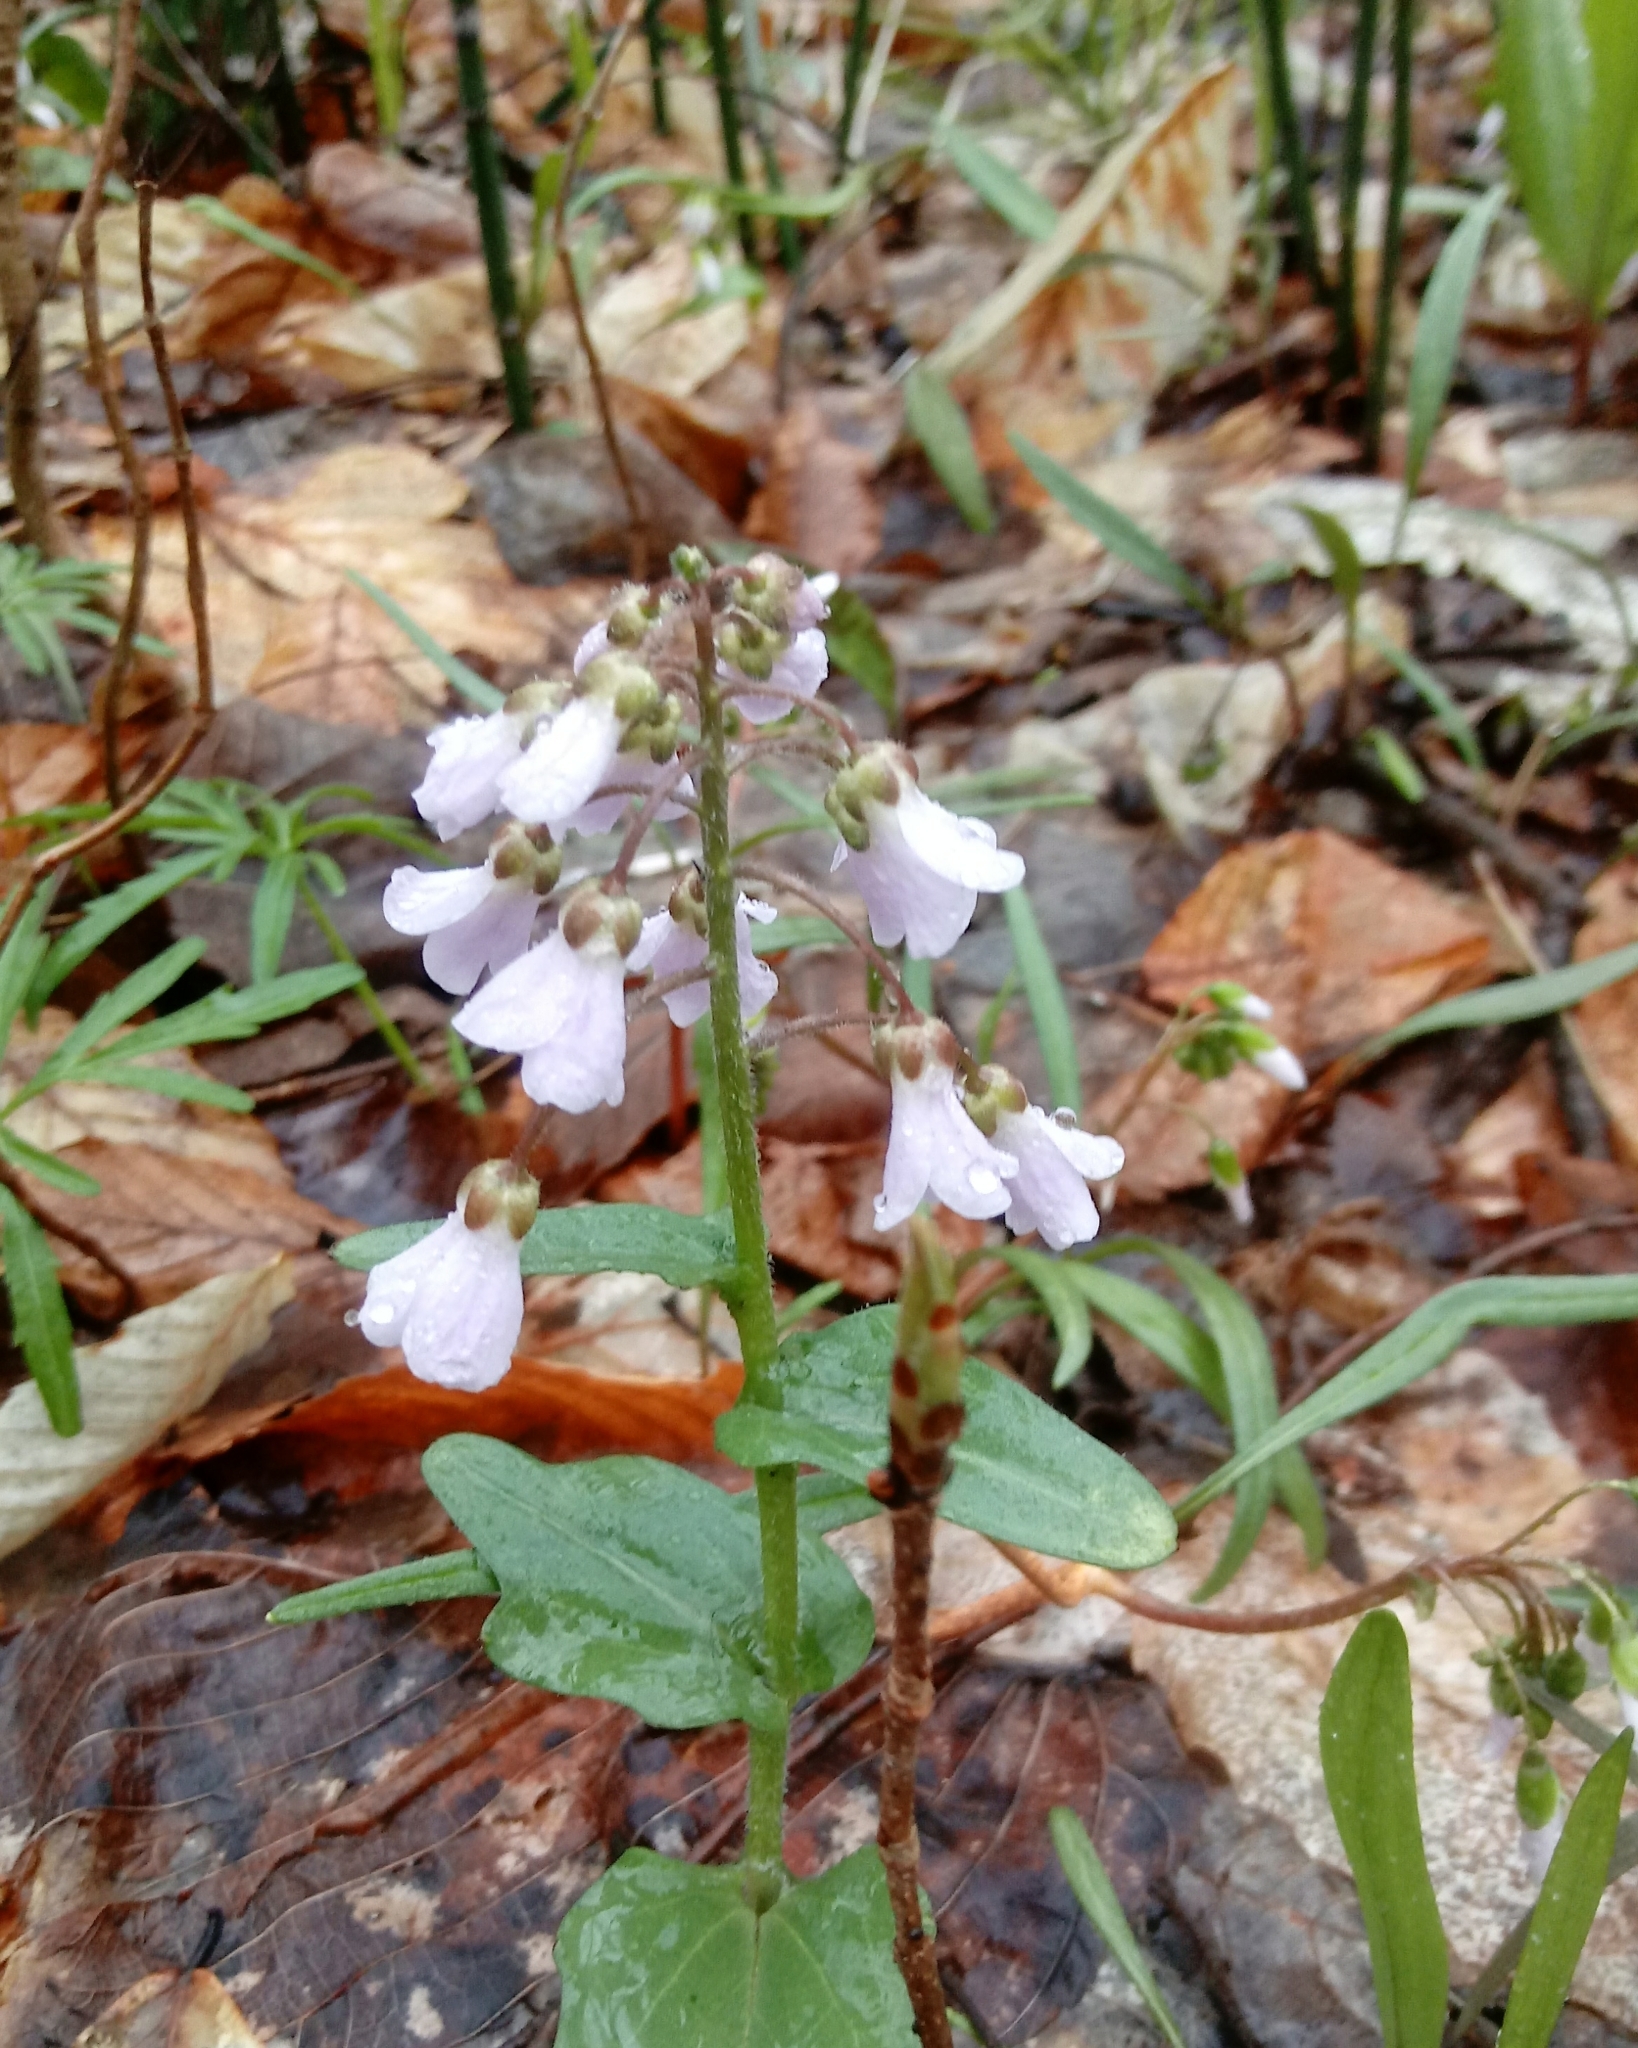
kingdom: Plantae
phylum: Tracheophyta
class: Magnoliopsida
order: Brassicales
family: Brassicaceae
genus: Cardamine
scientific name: Cardamine douglassii
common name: Purple cress
